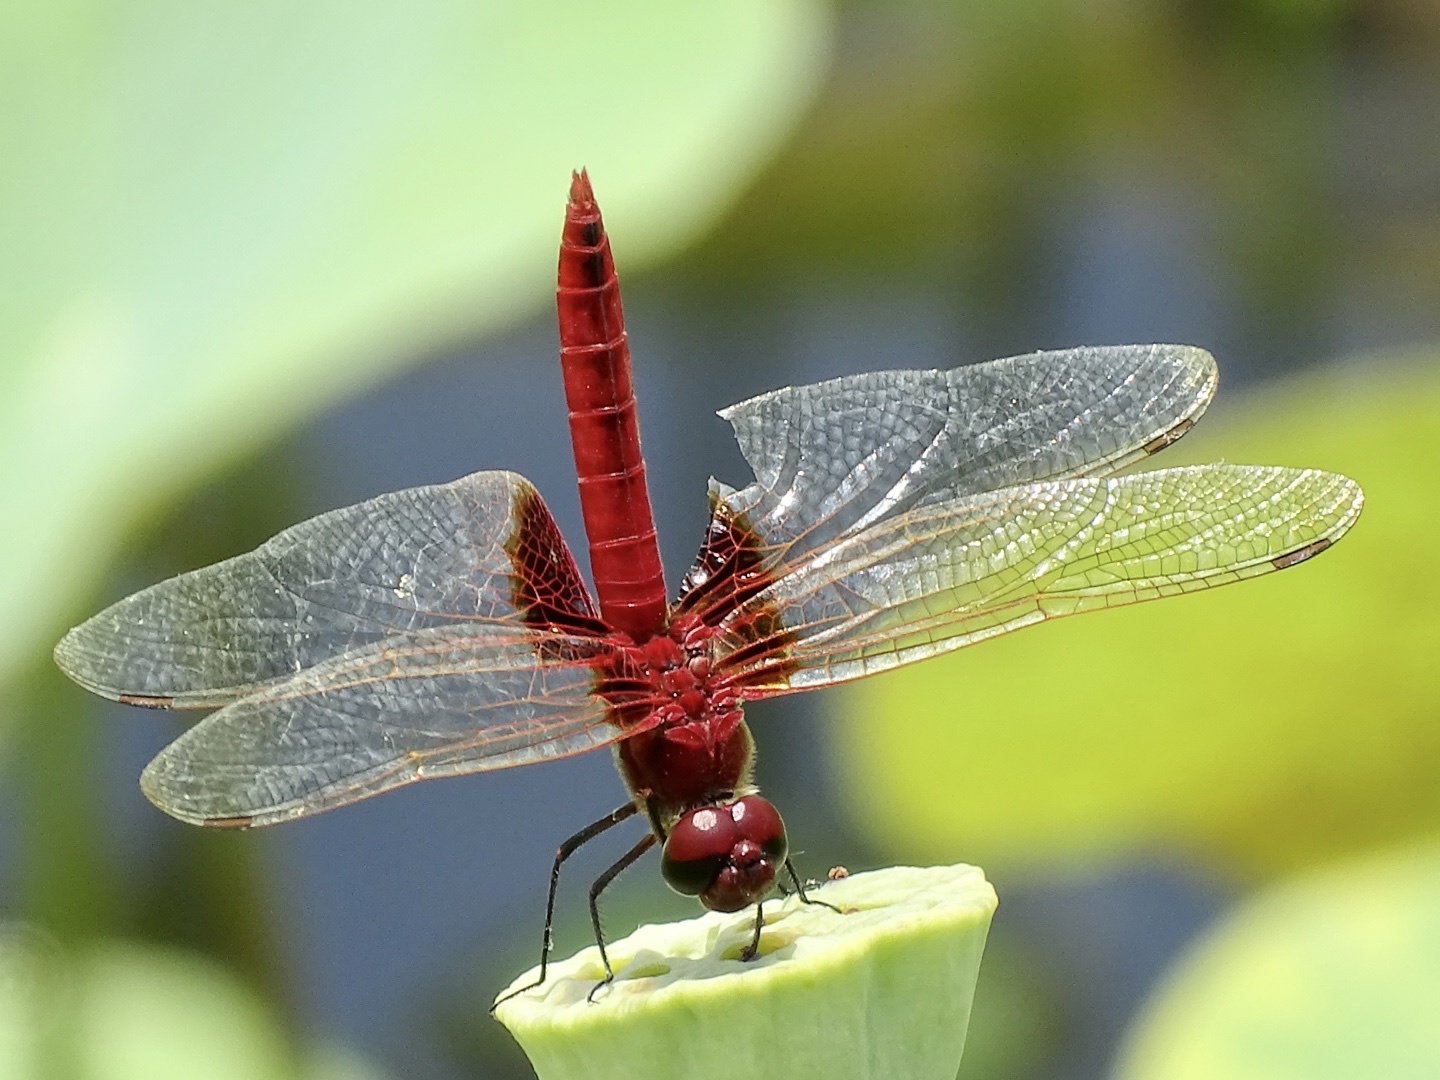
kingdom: Animalia
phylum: Arthropoda
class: Insecta
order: Odonata
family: Libellulidae
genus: Urothemis
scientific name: Urothemis signata
